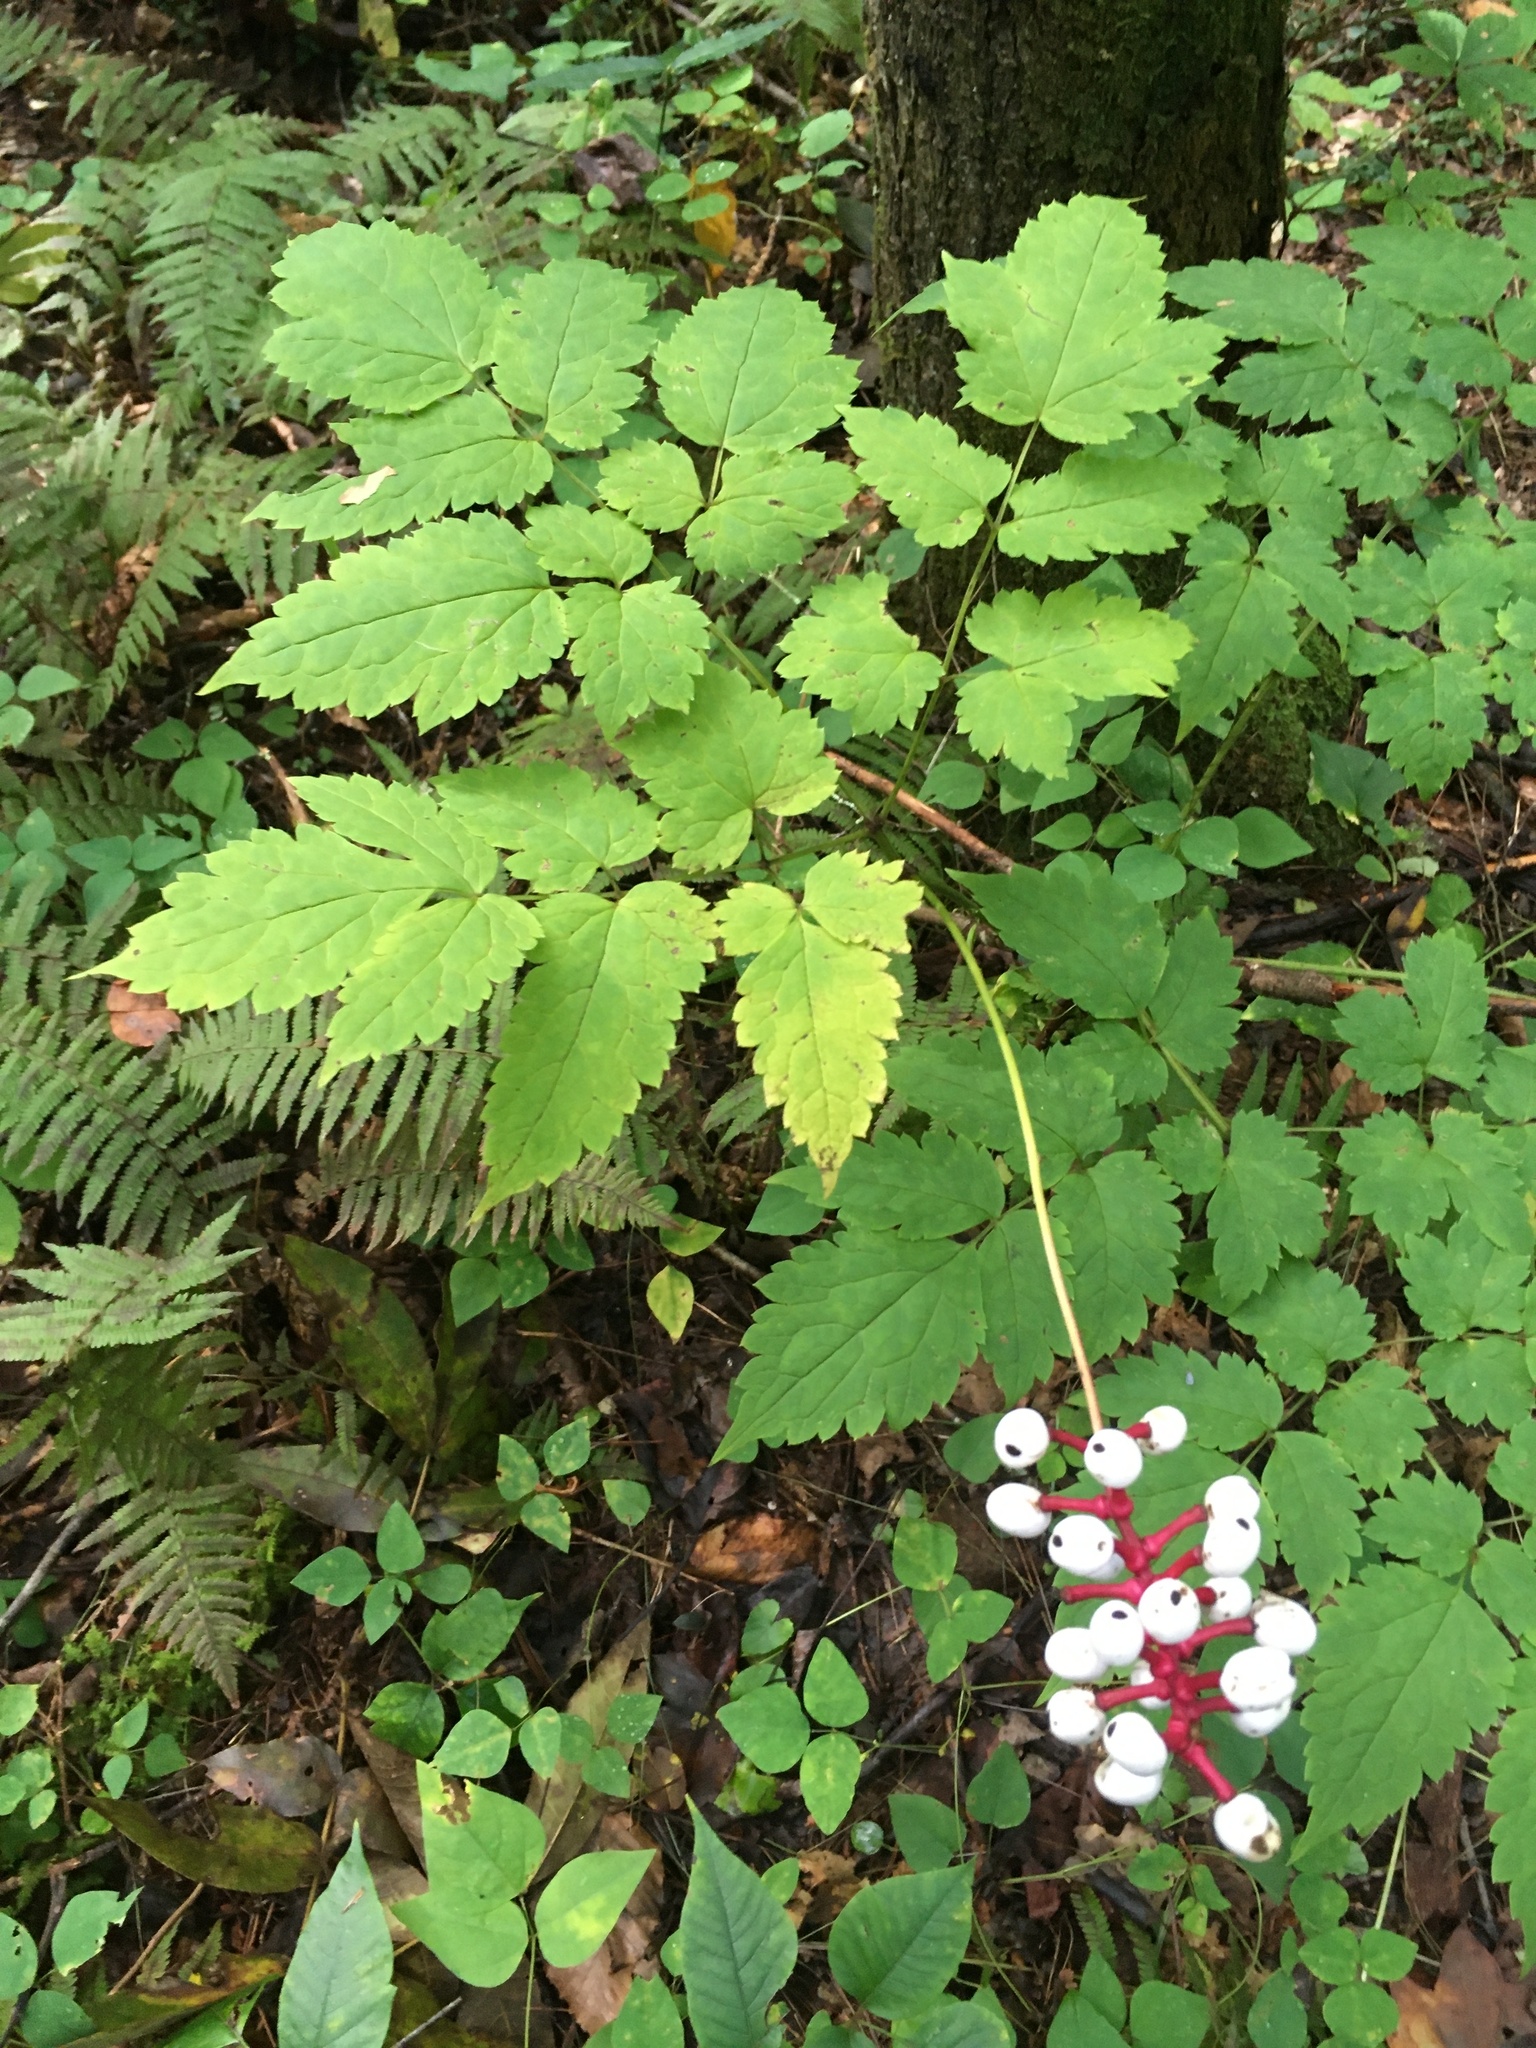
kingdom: Plantae
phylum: Tracheophyta
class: Magnoliopsida
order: Ranunculales
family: Ranunculaceae
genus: Actaea
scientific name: Actaea pachypoda
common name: Doll's-eyes
